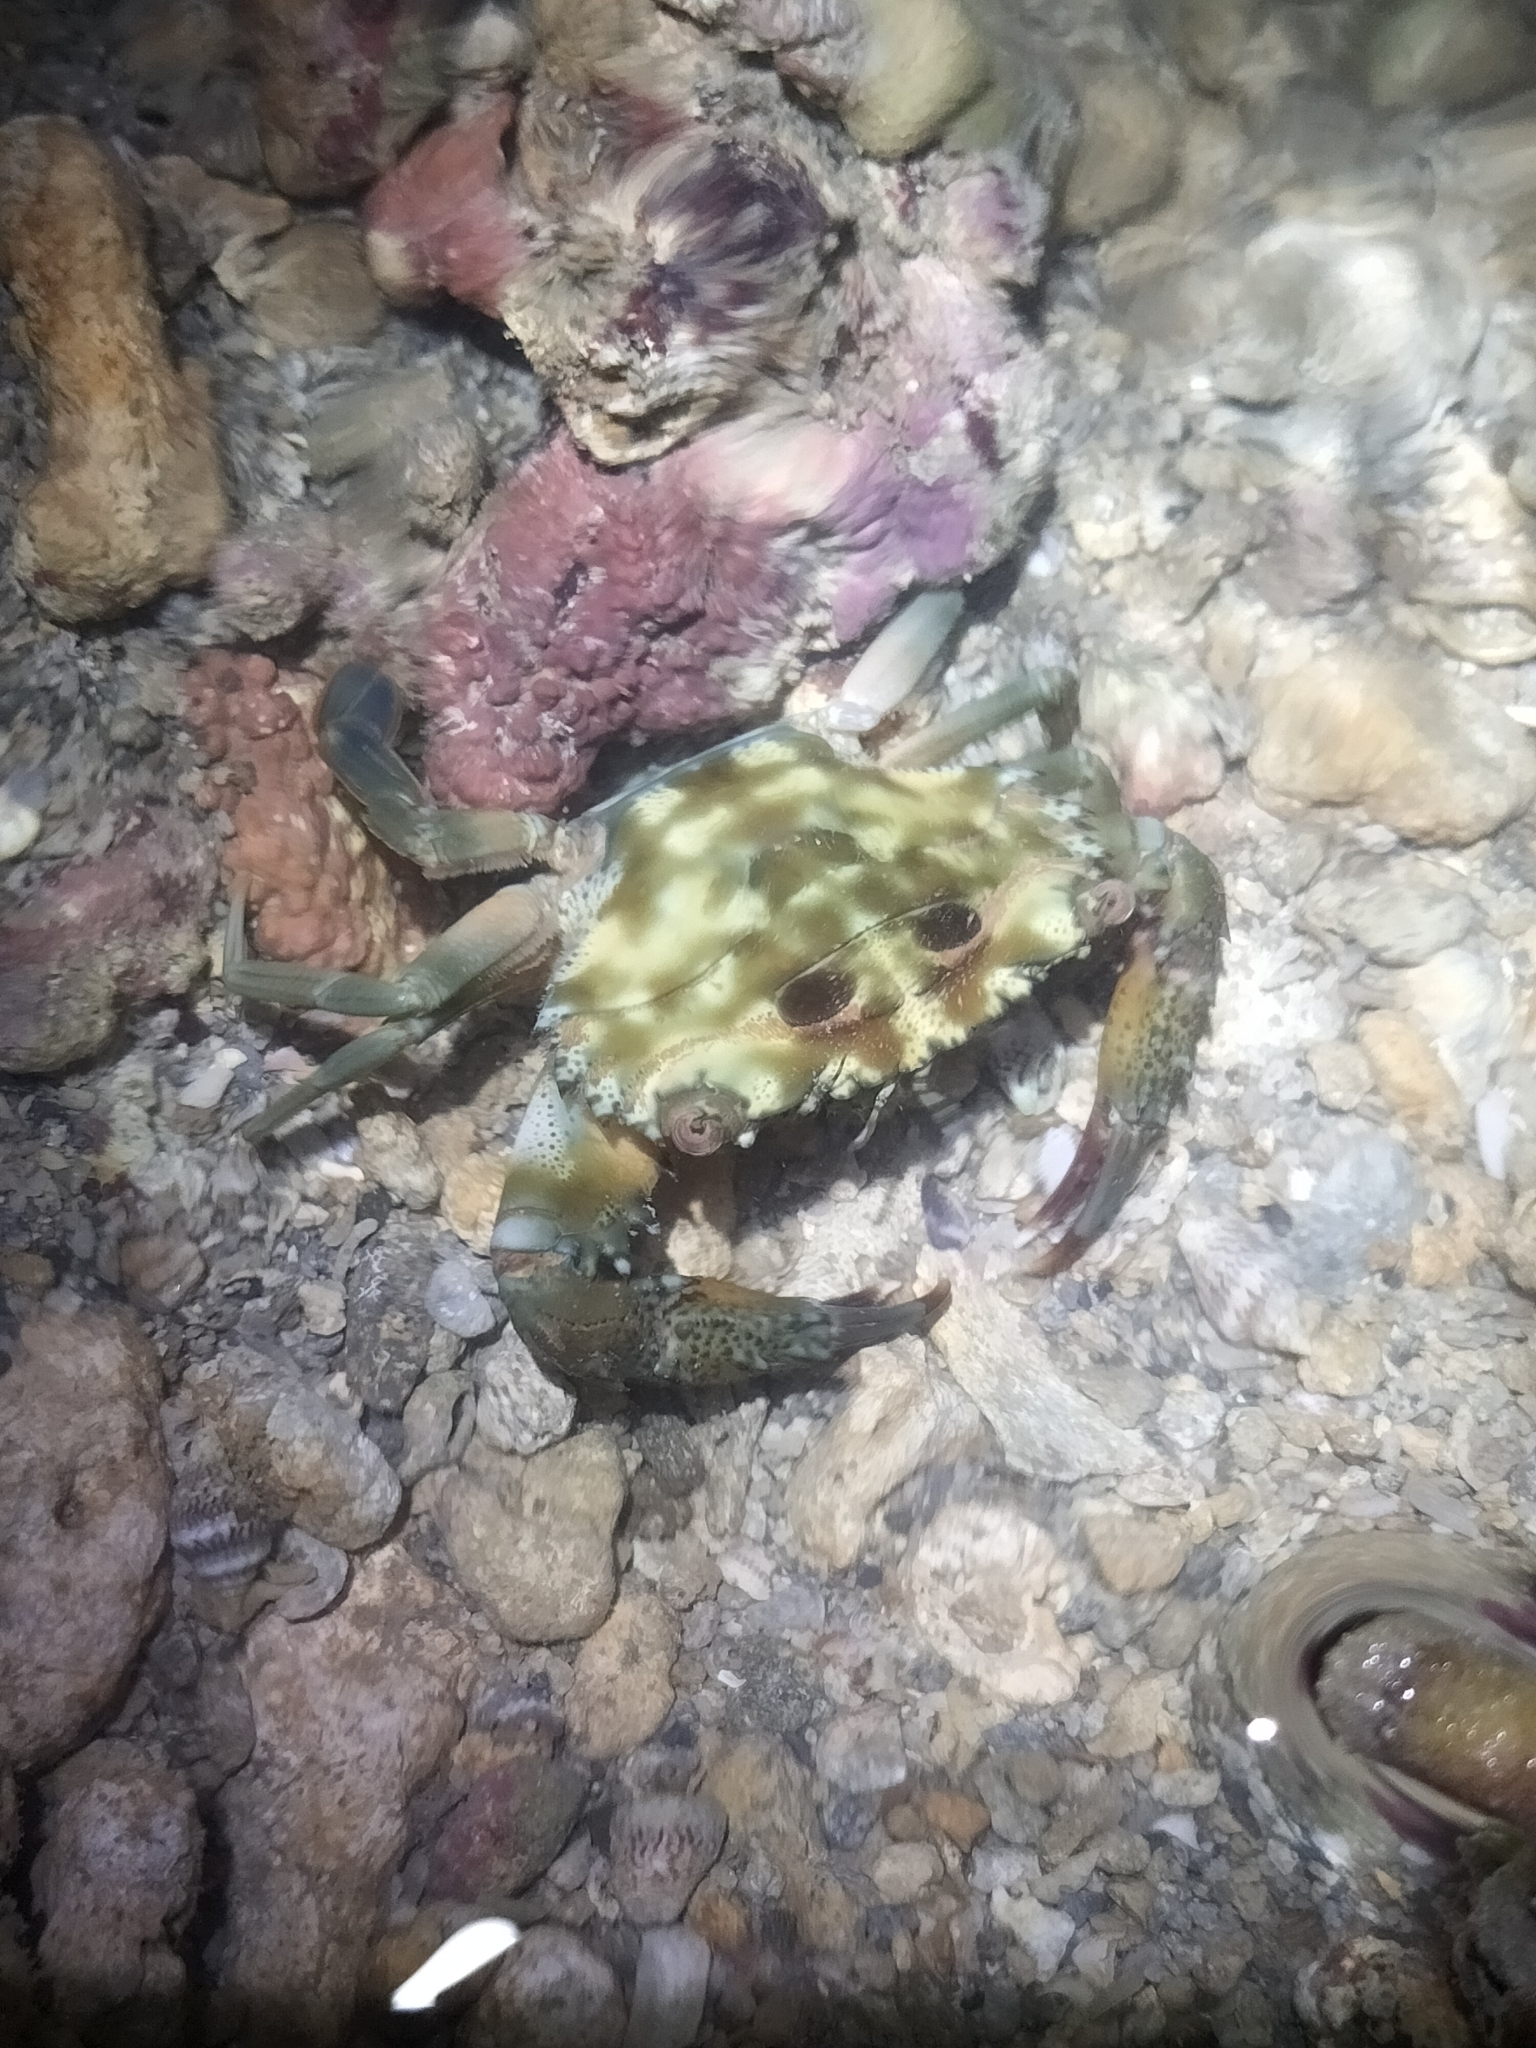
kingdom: Animalia
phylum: Arthropoda
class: Malacostraca
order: Decapoda
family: Portunidae
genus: Thalamita
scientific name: Thalamita prymna
